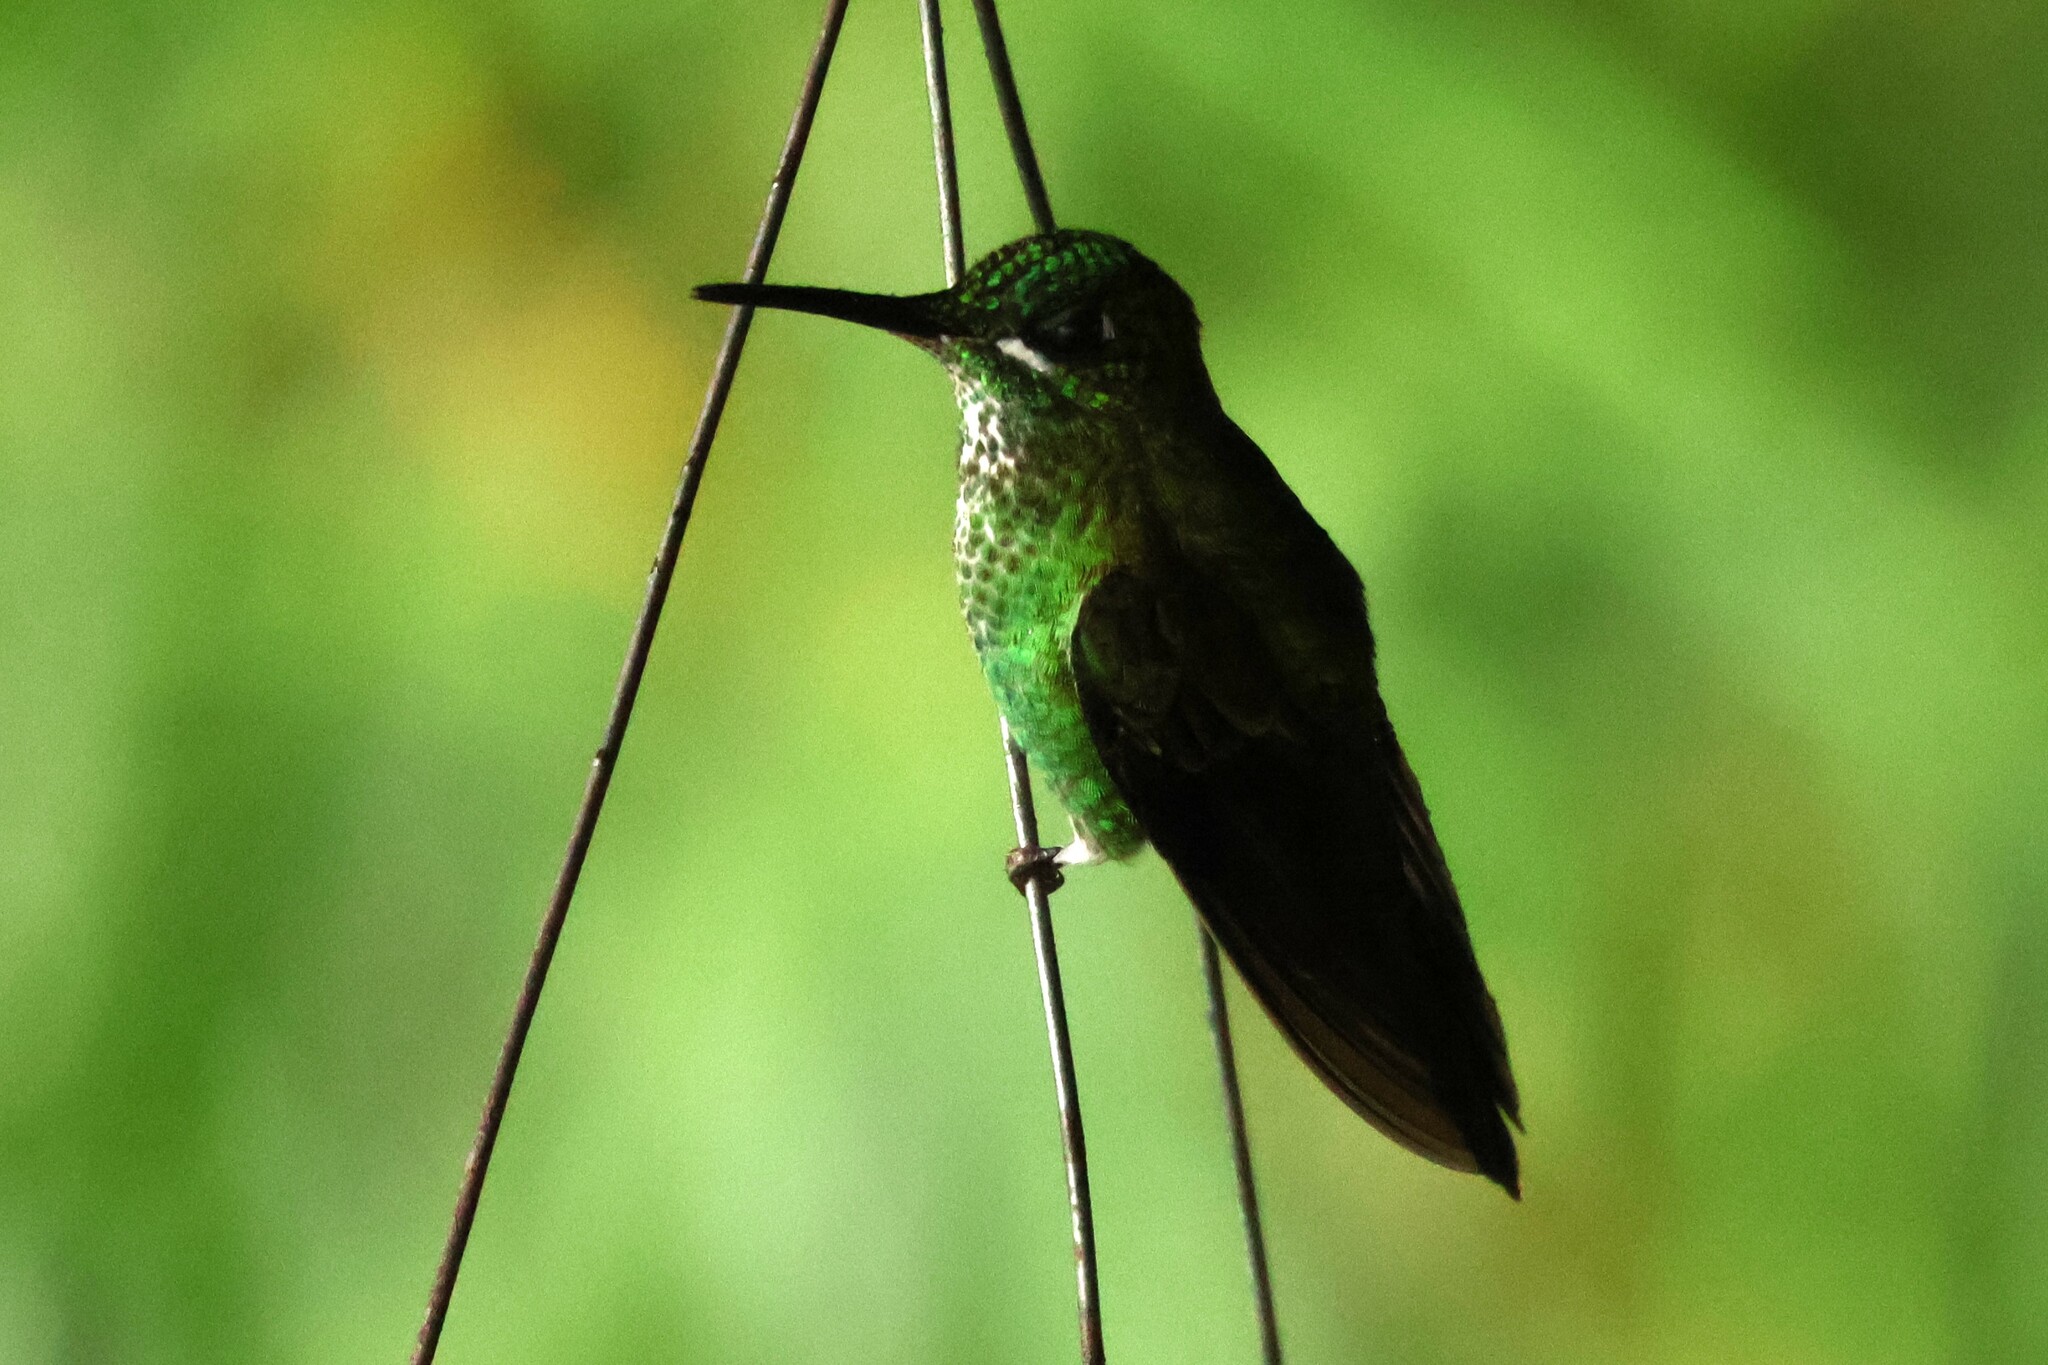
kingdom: Animalia
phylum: Chordata
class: Aves
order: Apodiformes
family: Trochilidae
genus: Heliodoxa
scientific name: Heliodoxa jacula
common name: Green-crowned brilliant
